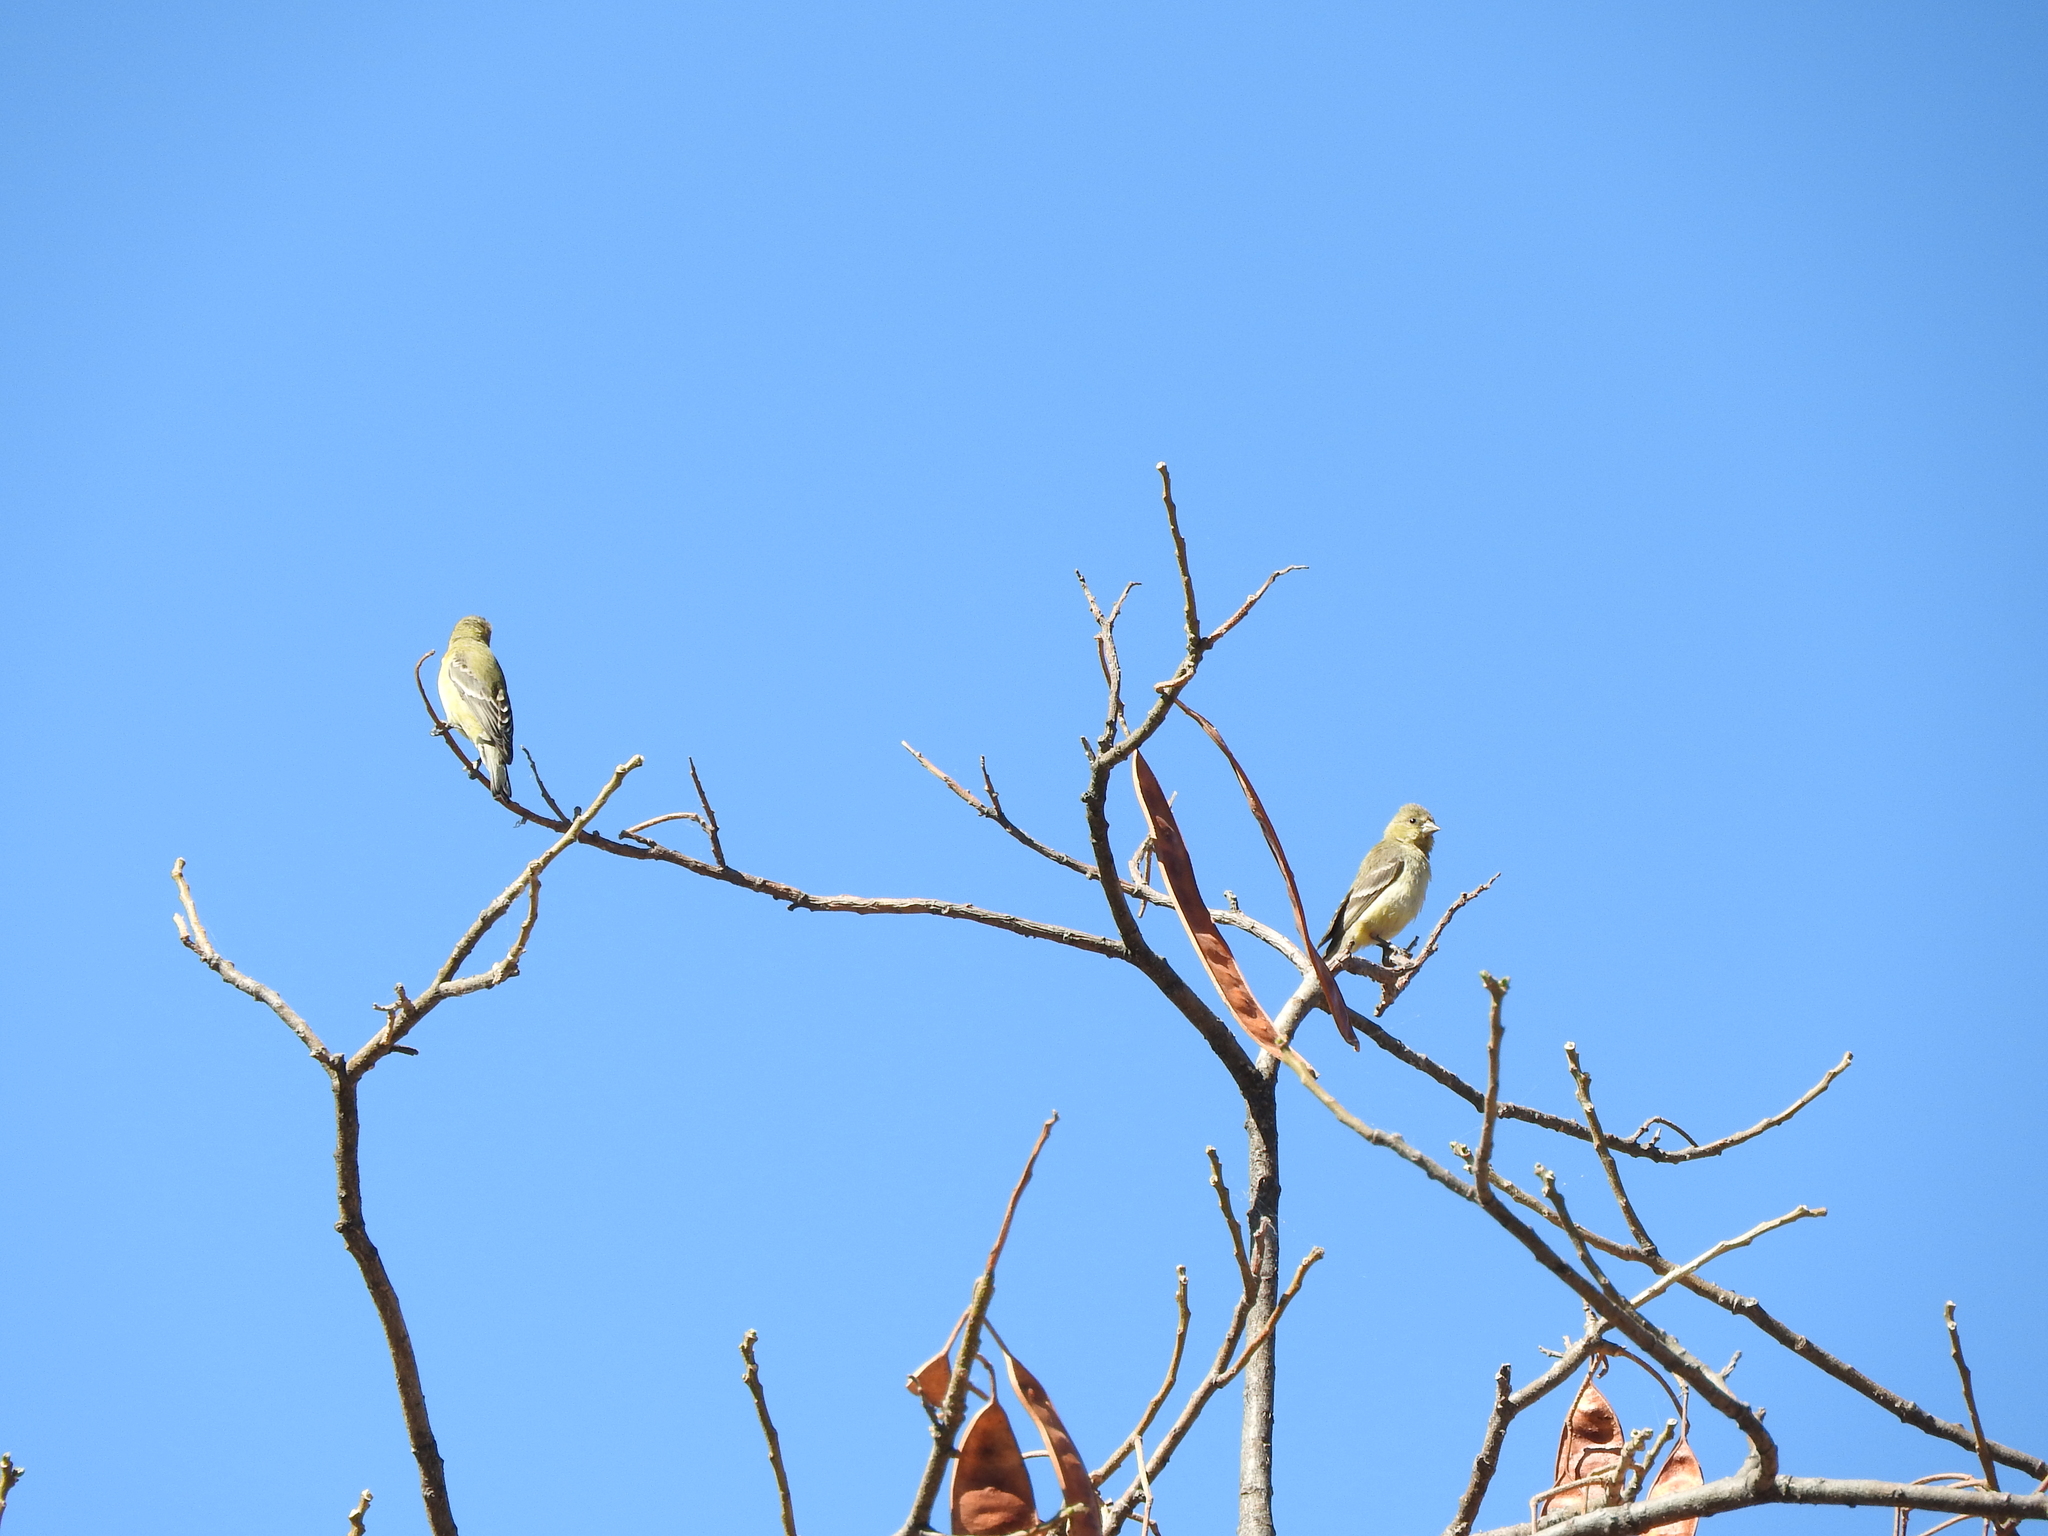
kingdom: Animalia
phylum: Chordata
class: Aves
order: Passeriformes
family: Fringillidae
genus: Spinus
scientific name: Spinus psaltria
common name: Lesser goldfinch
